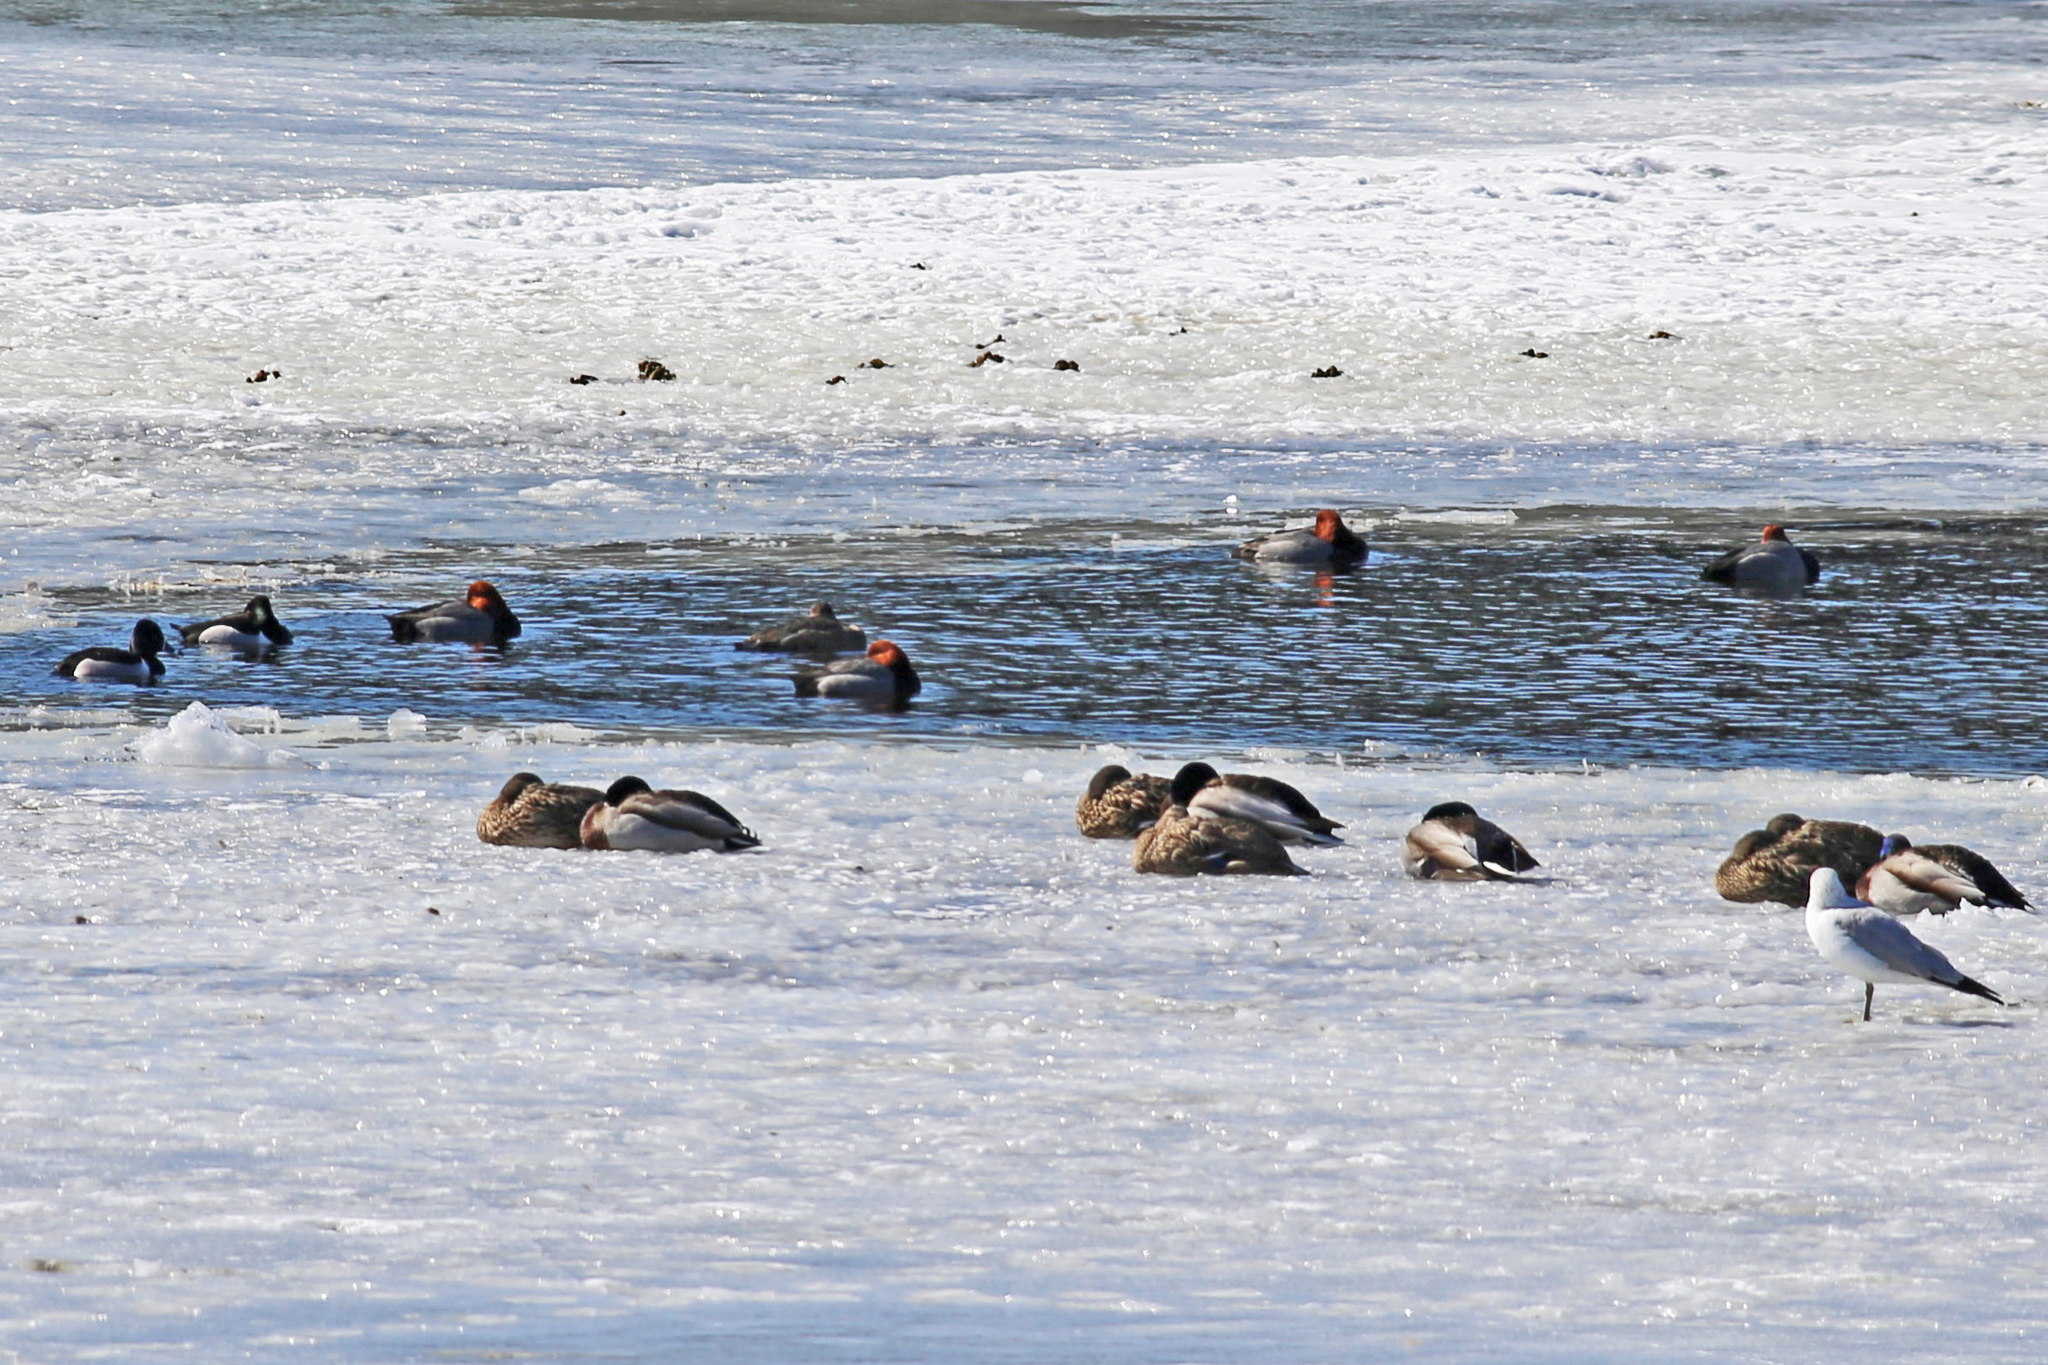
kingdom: Animalia
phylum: Chordata
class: Aves
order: Anseriformes
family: Anatidae
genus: Aythya
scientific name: Aythya americana
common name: Redhead
